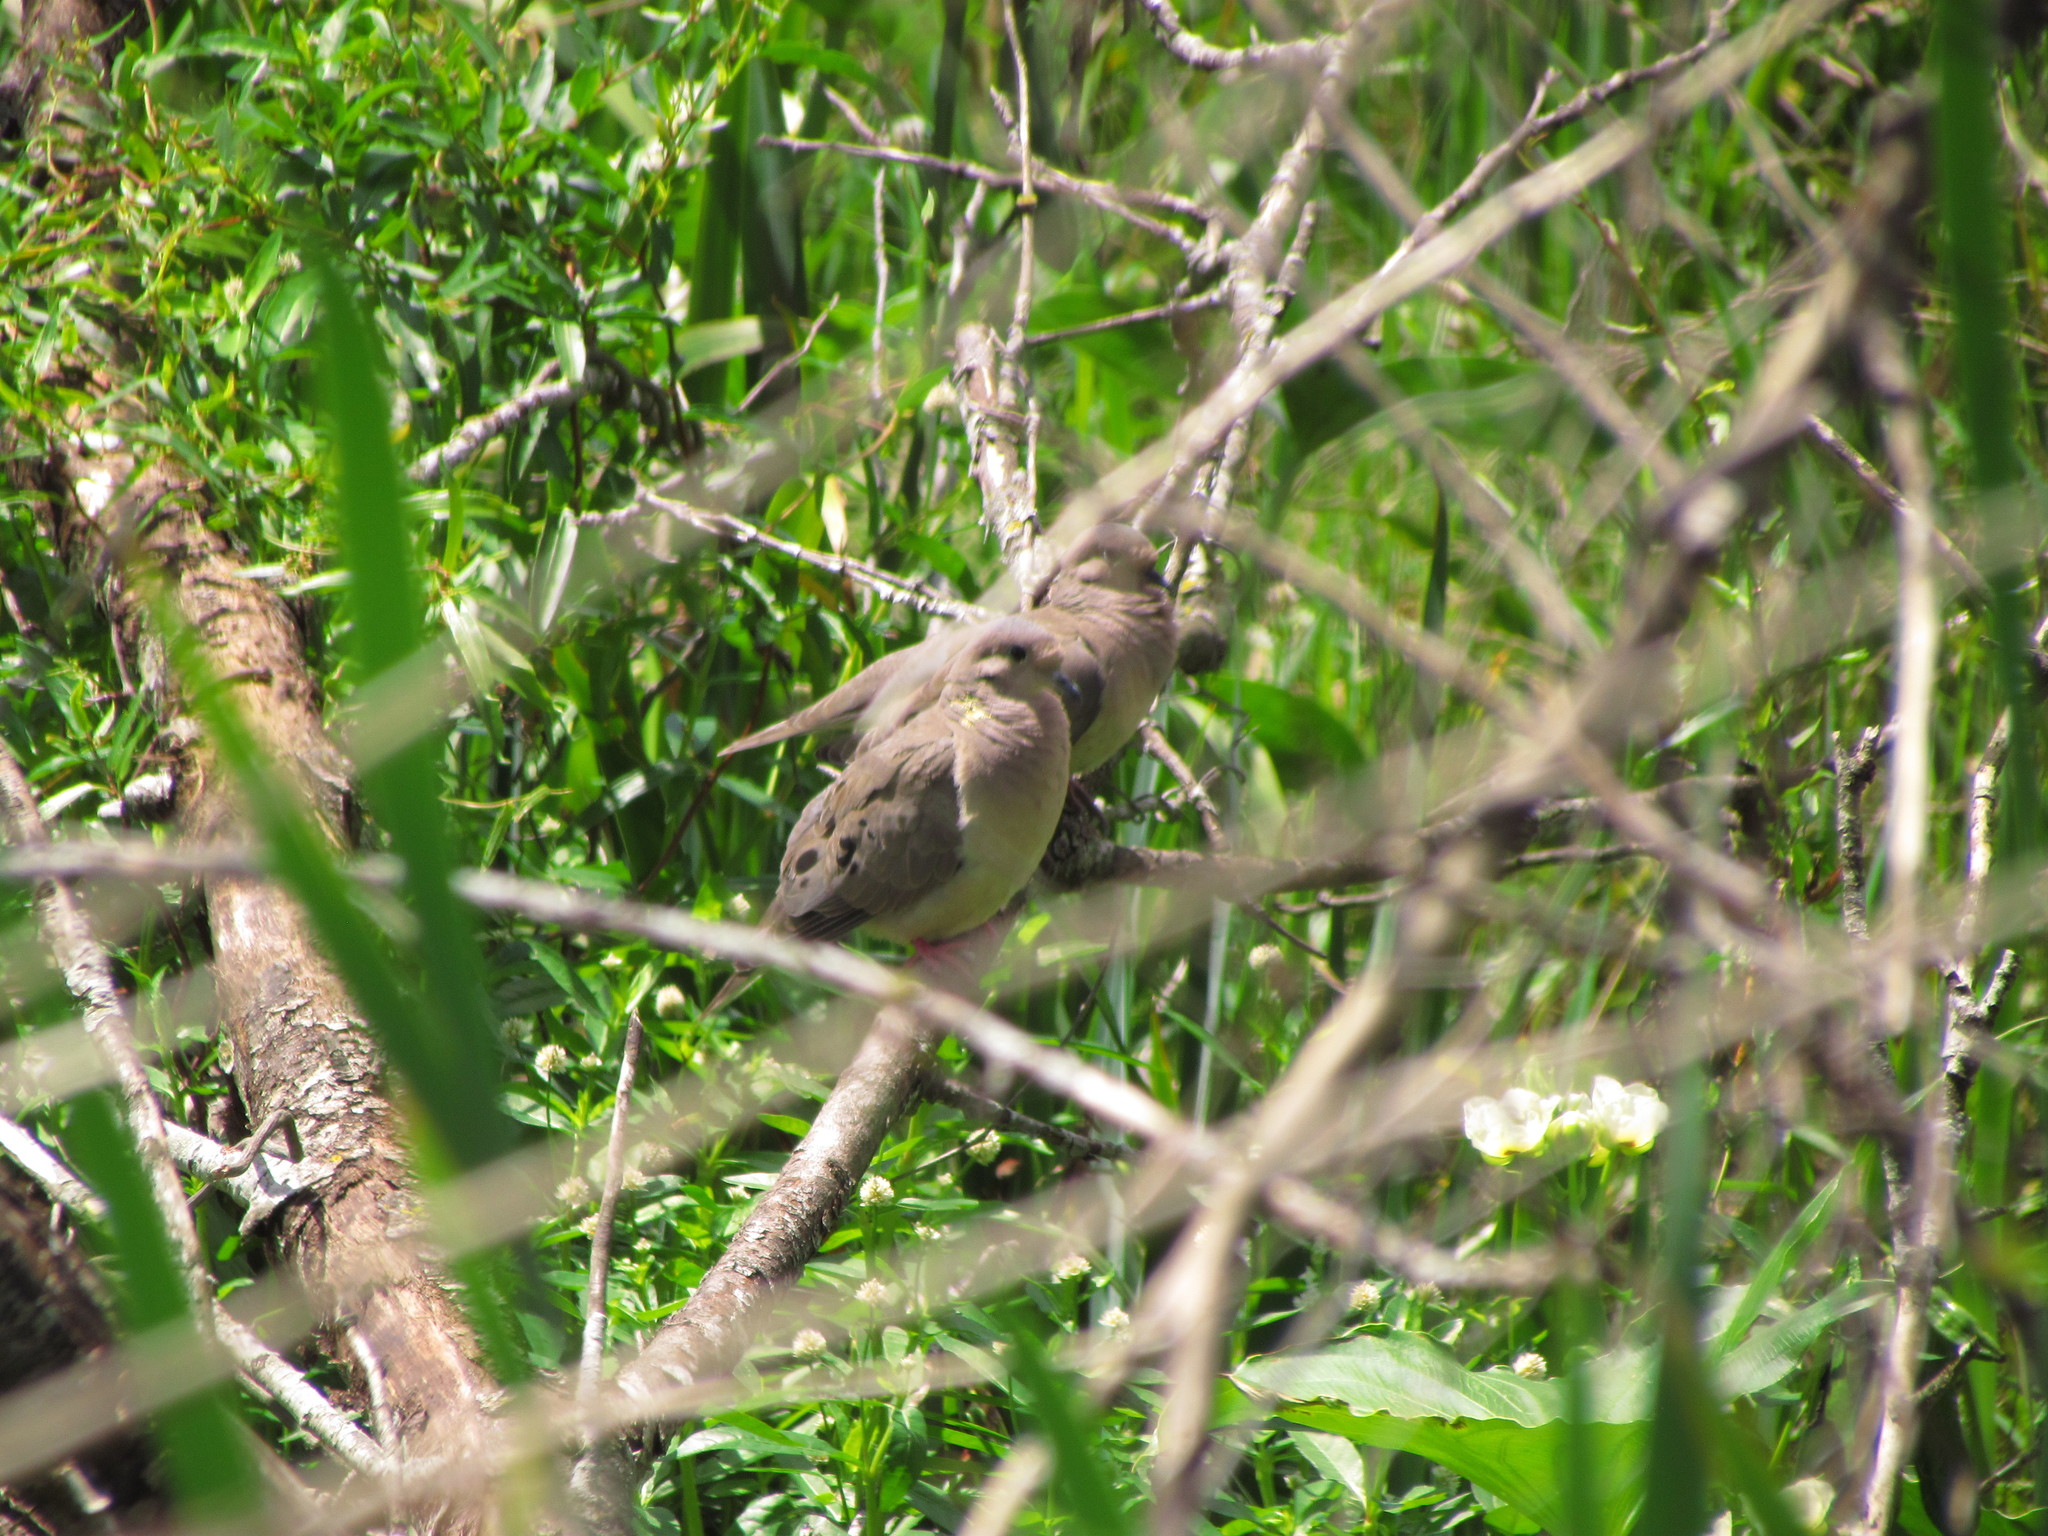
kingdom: Animalia
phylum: Chordata
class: Aves
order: Columbiformes
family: Columbidae
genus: Zenaida
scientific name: Zenaida auriculata
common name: Eared dove
